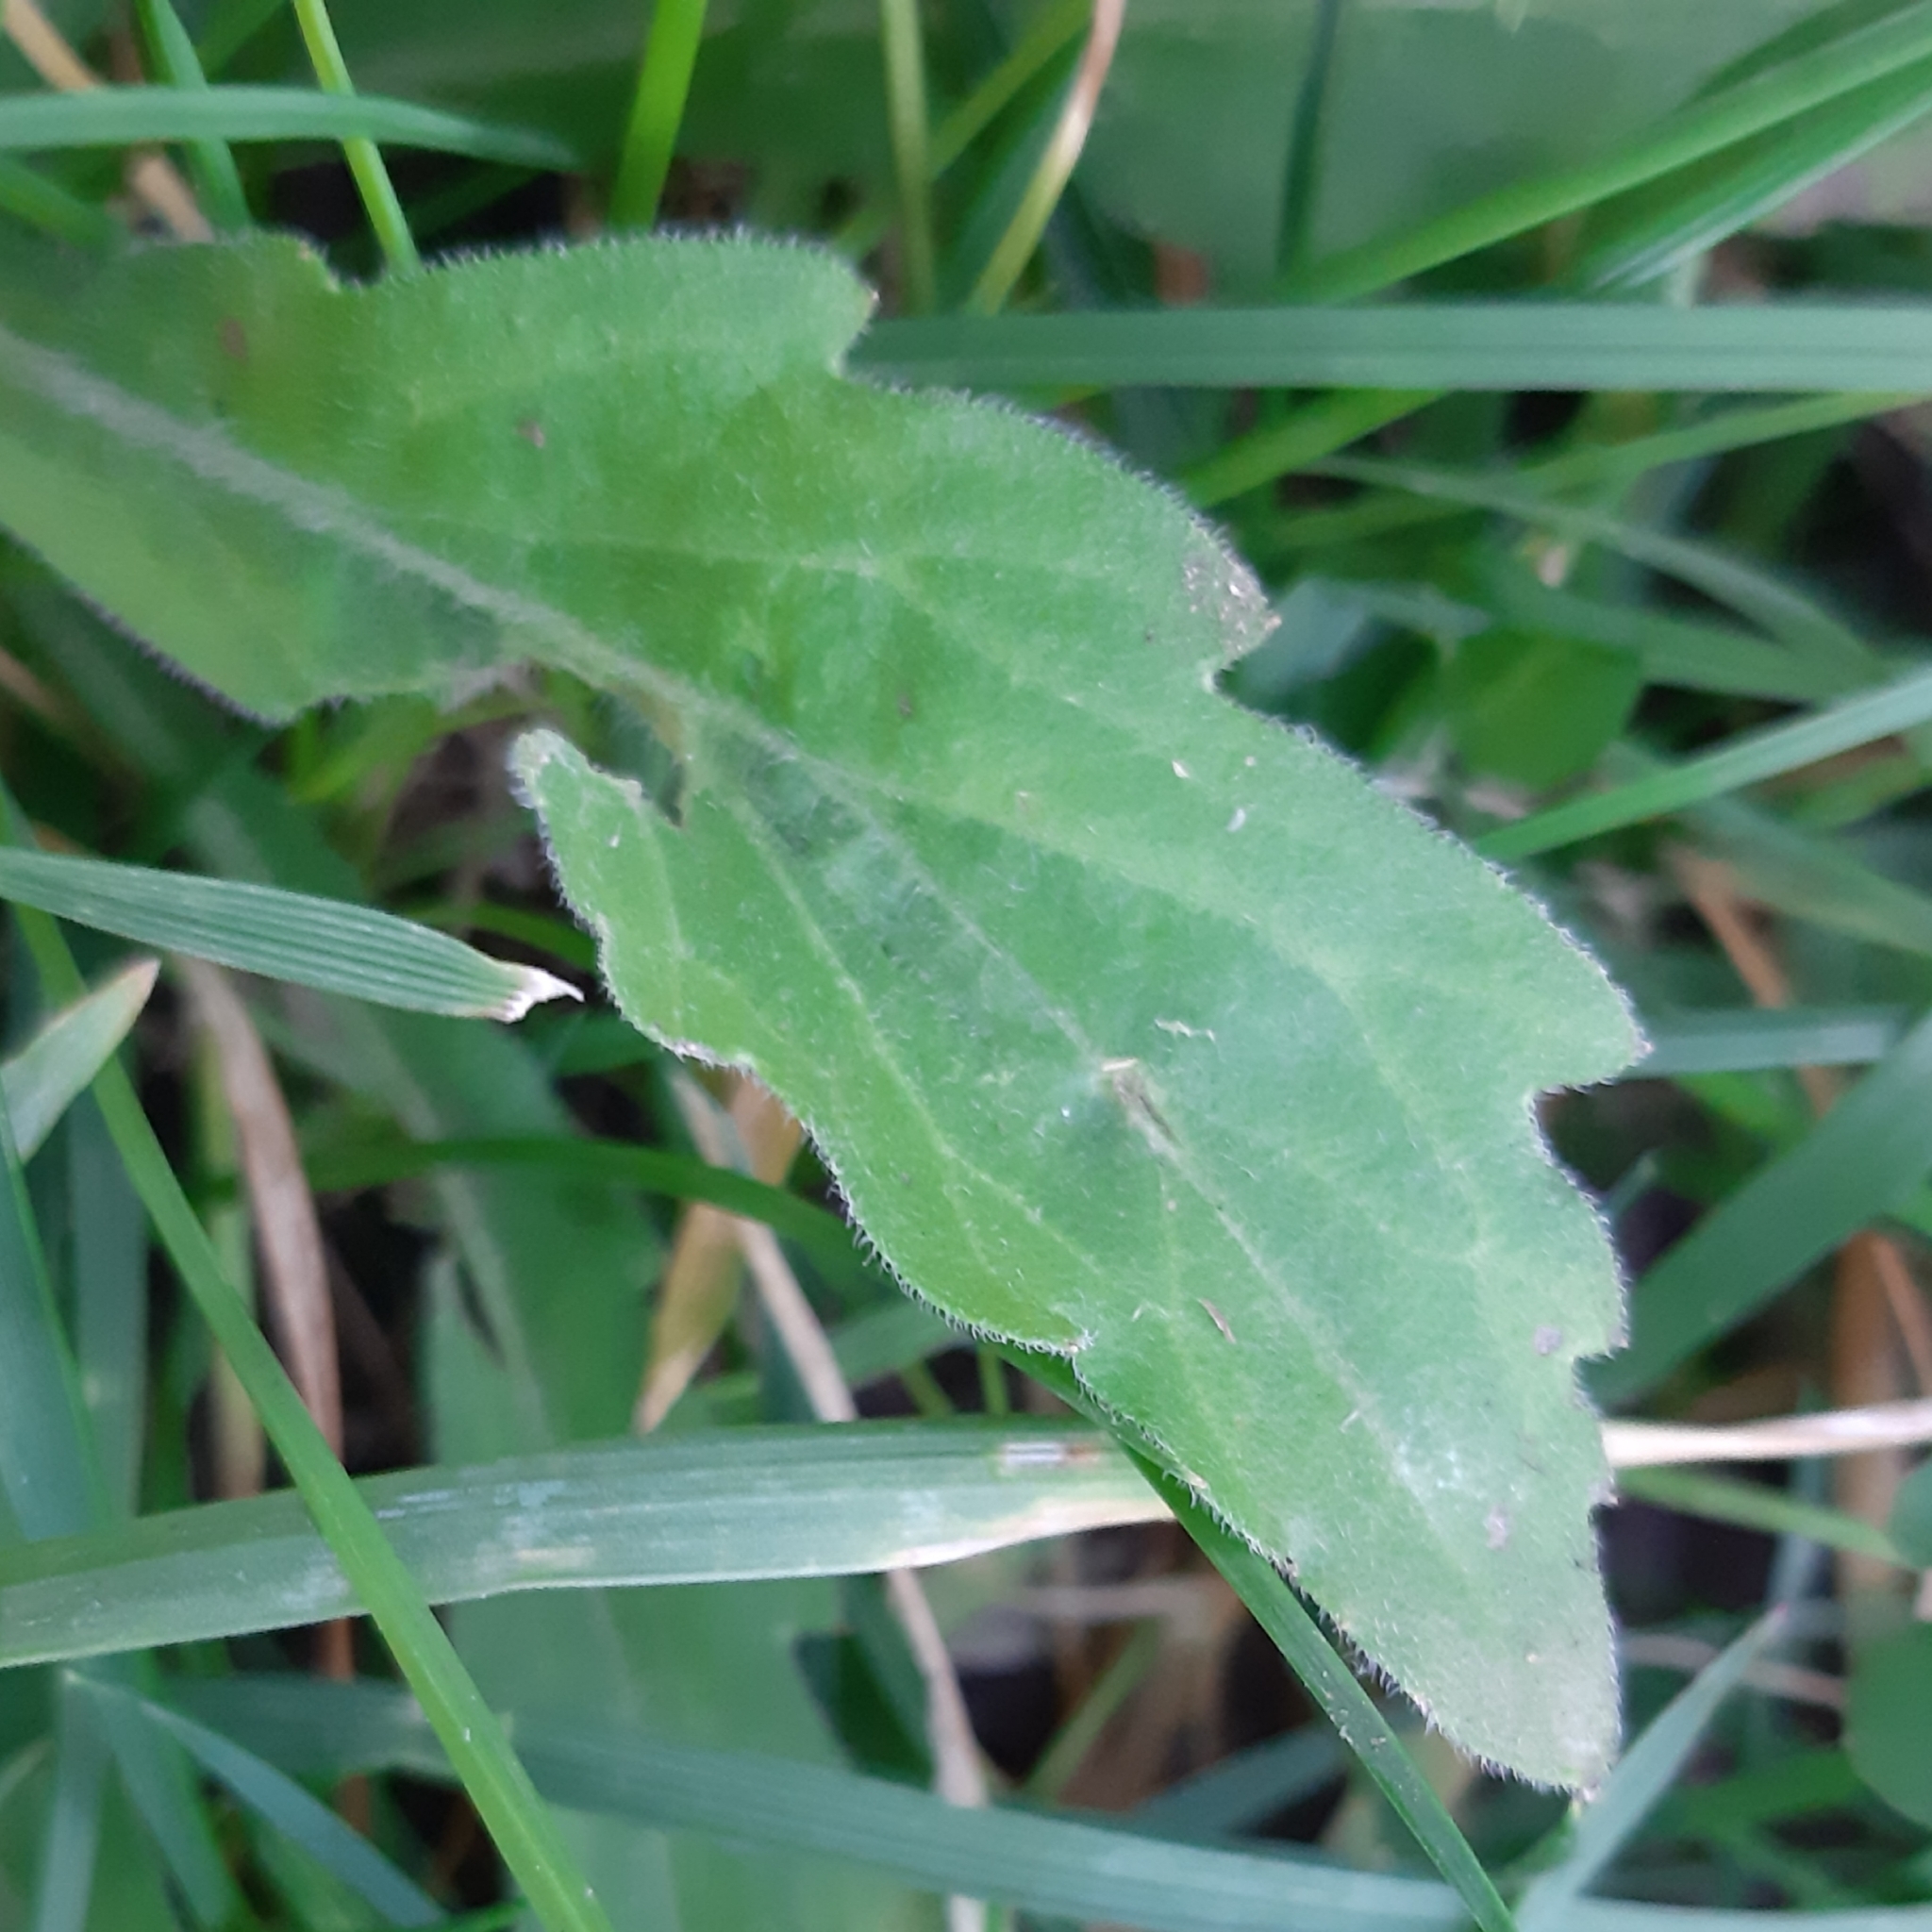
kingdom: Plantae
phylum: Tracheophyta
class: Magnoliopsida
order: Asterales
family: Asteraceae
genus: Erigeron
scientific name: Erigeron sumatrensis
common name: Daisy
